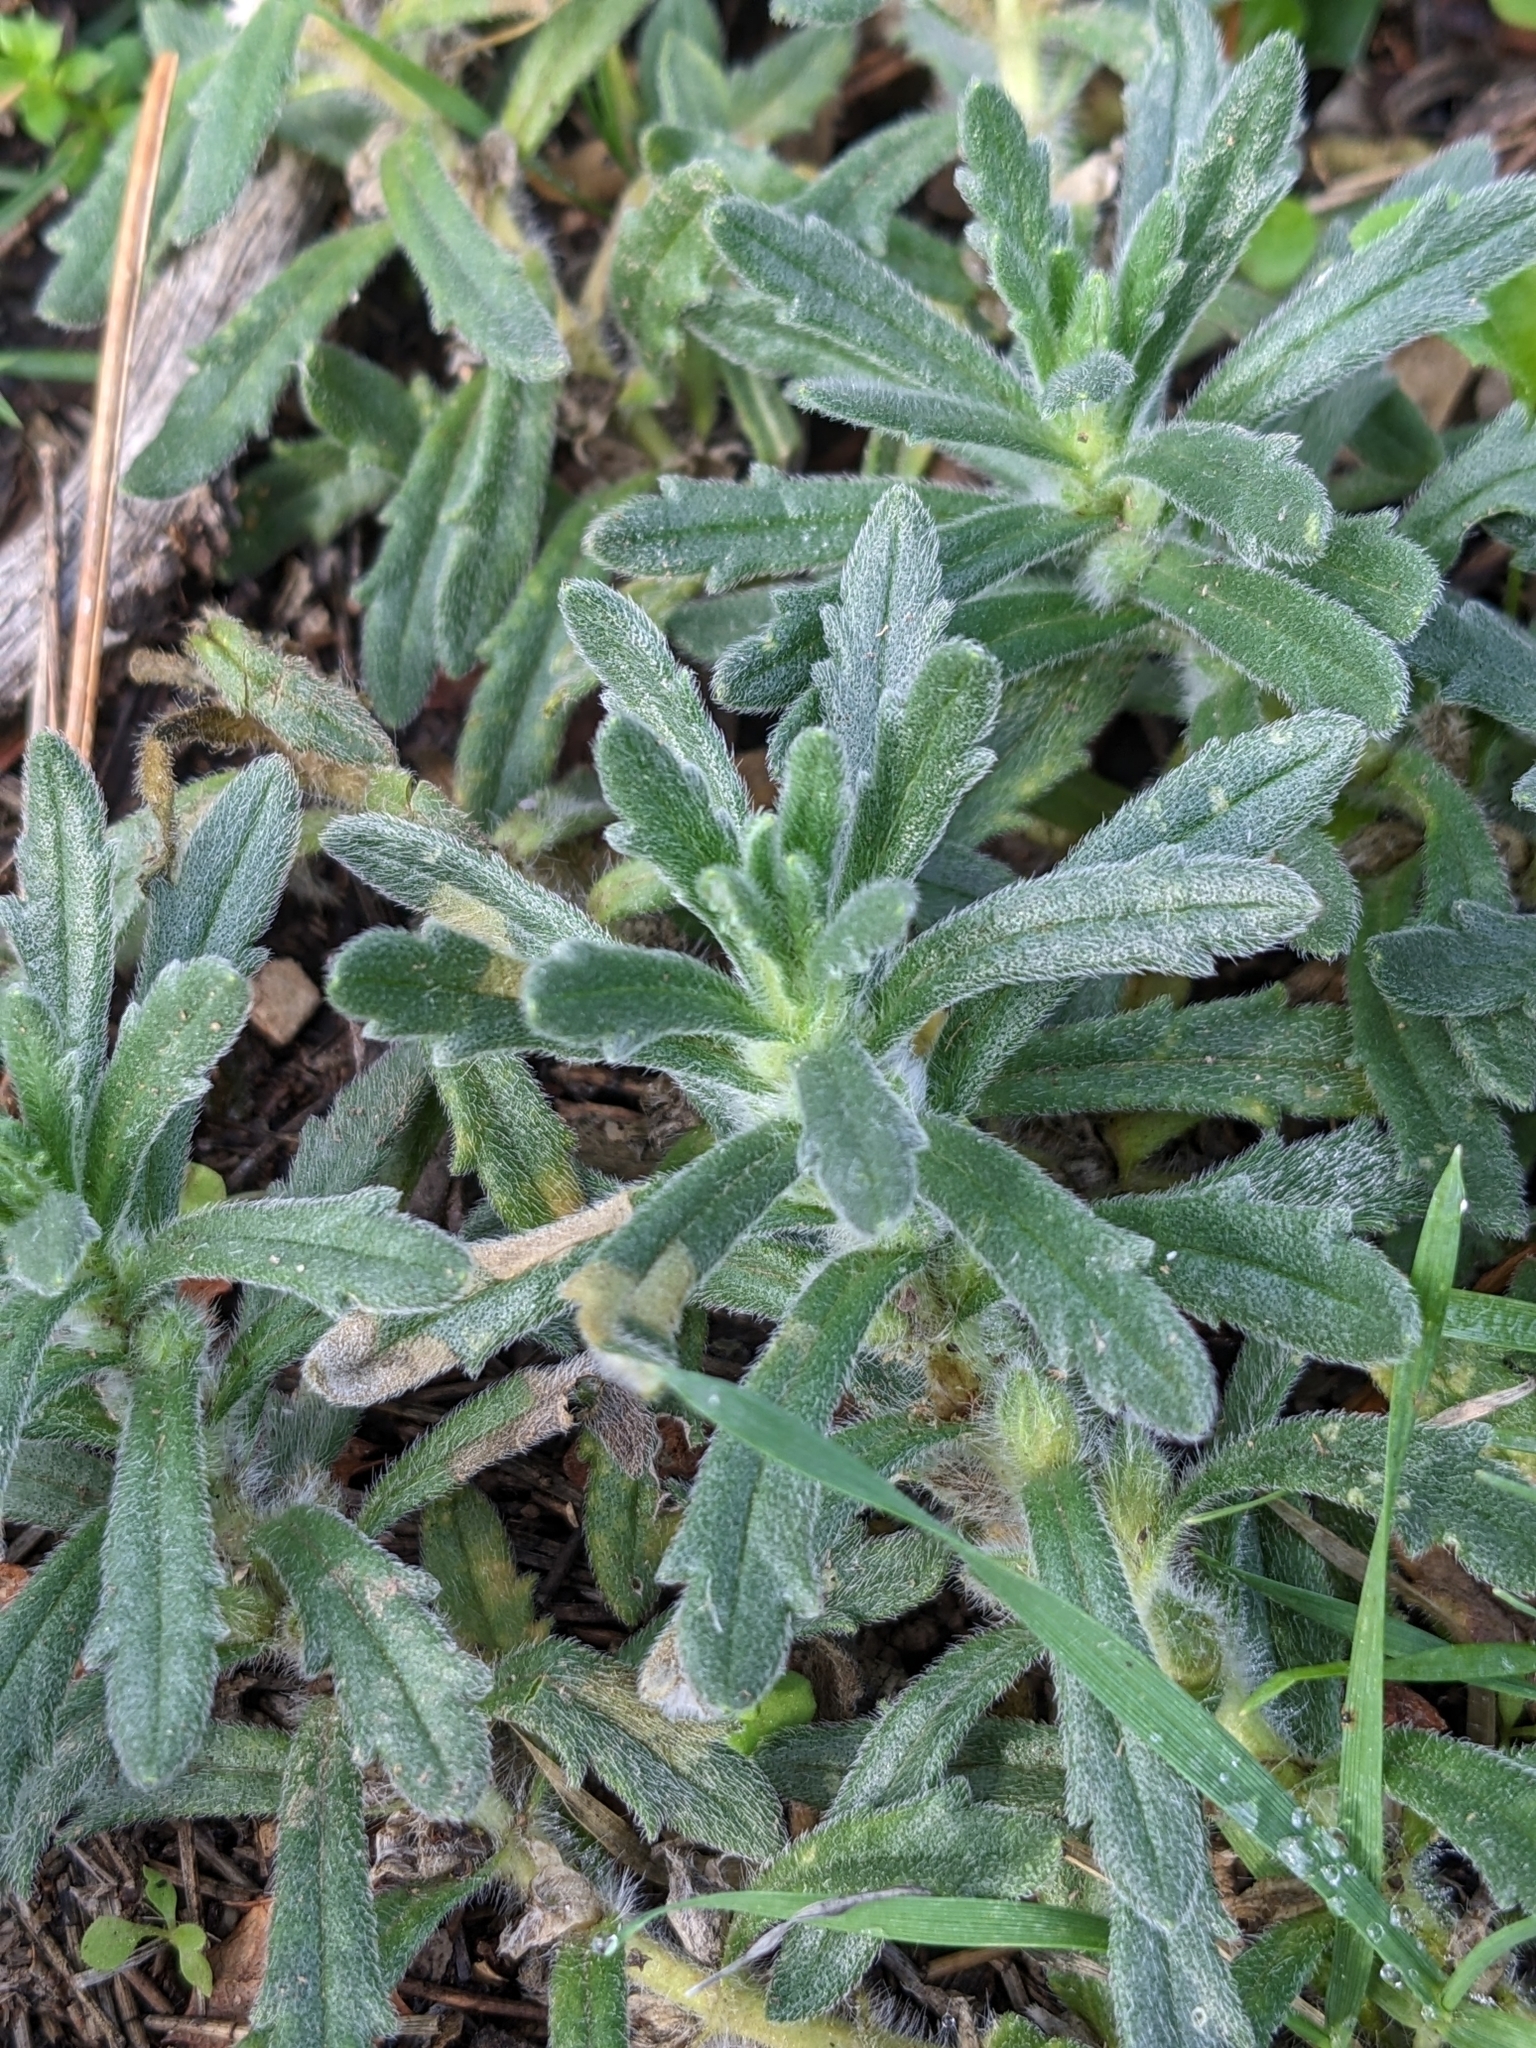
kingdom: Plantae
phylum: Tracheophyta
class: Magnoliopsida
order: Lamiales
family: Lamiaceae
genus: Ajuga
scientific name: Ajuga iva
